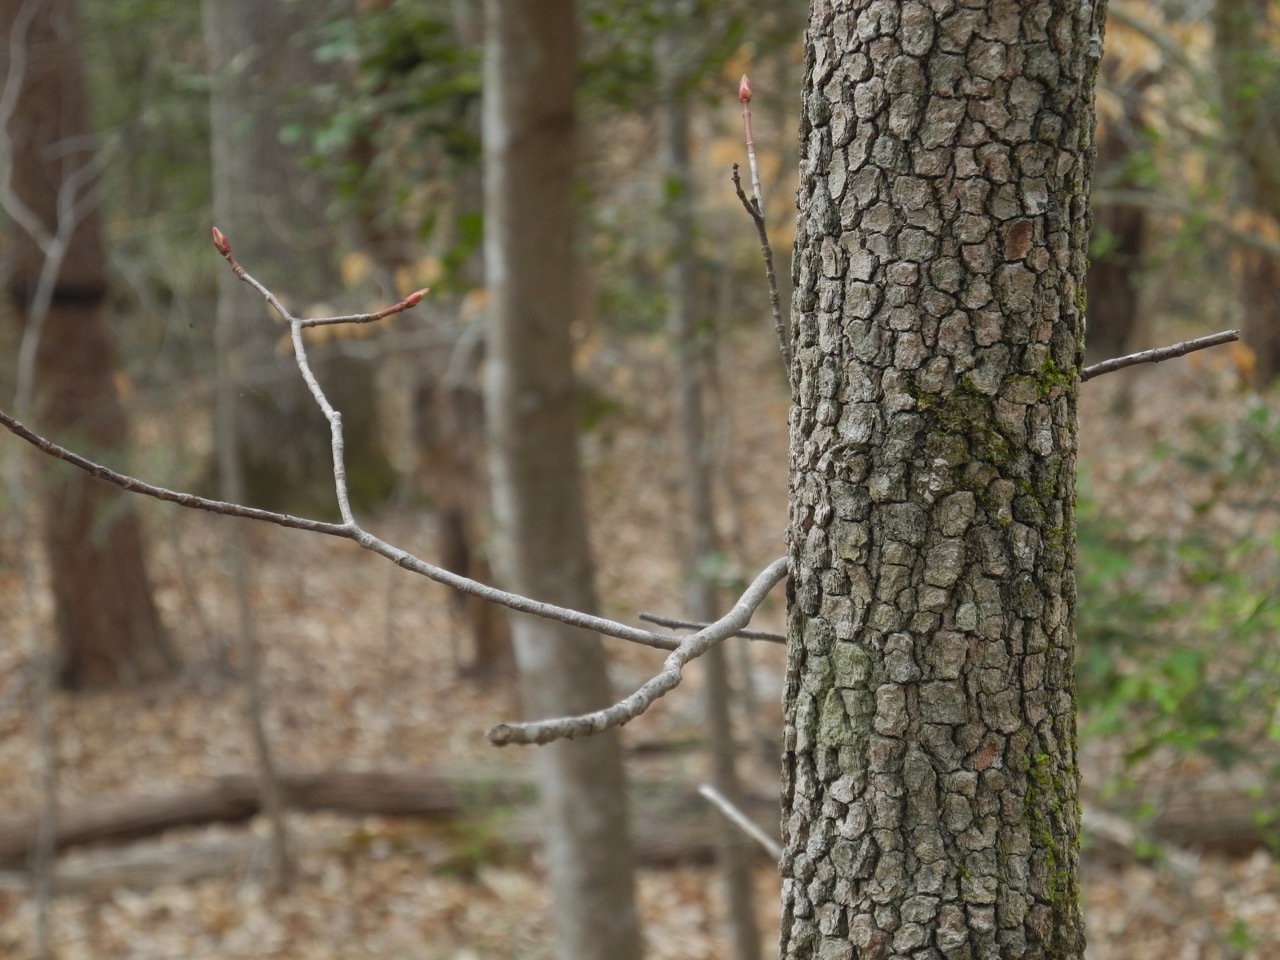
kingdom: Plantae
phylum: Tracheophyta
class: Magnoliopsida
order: Cornales
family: Cornaceae
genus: Cornus
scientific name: Cornus florida
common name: Flowering dogwood
